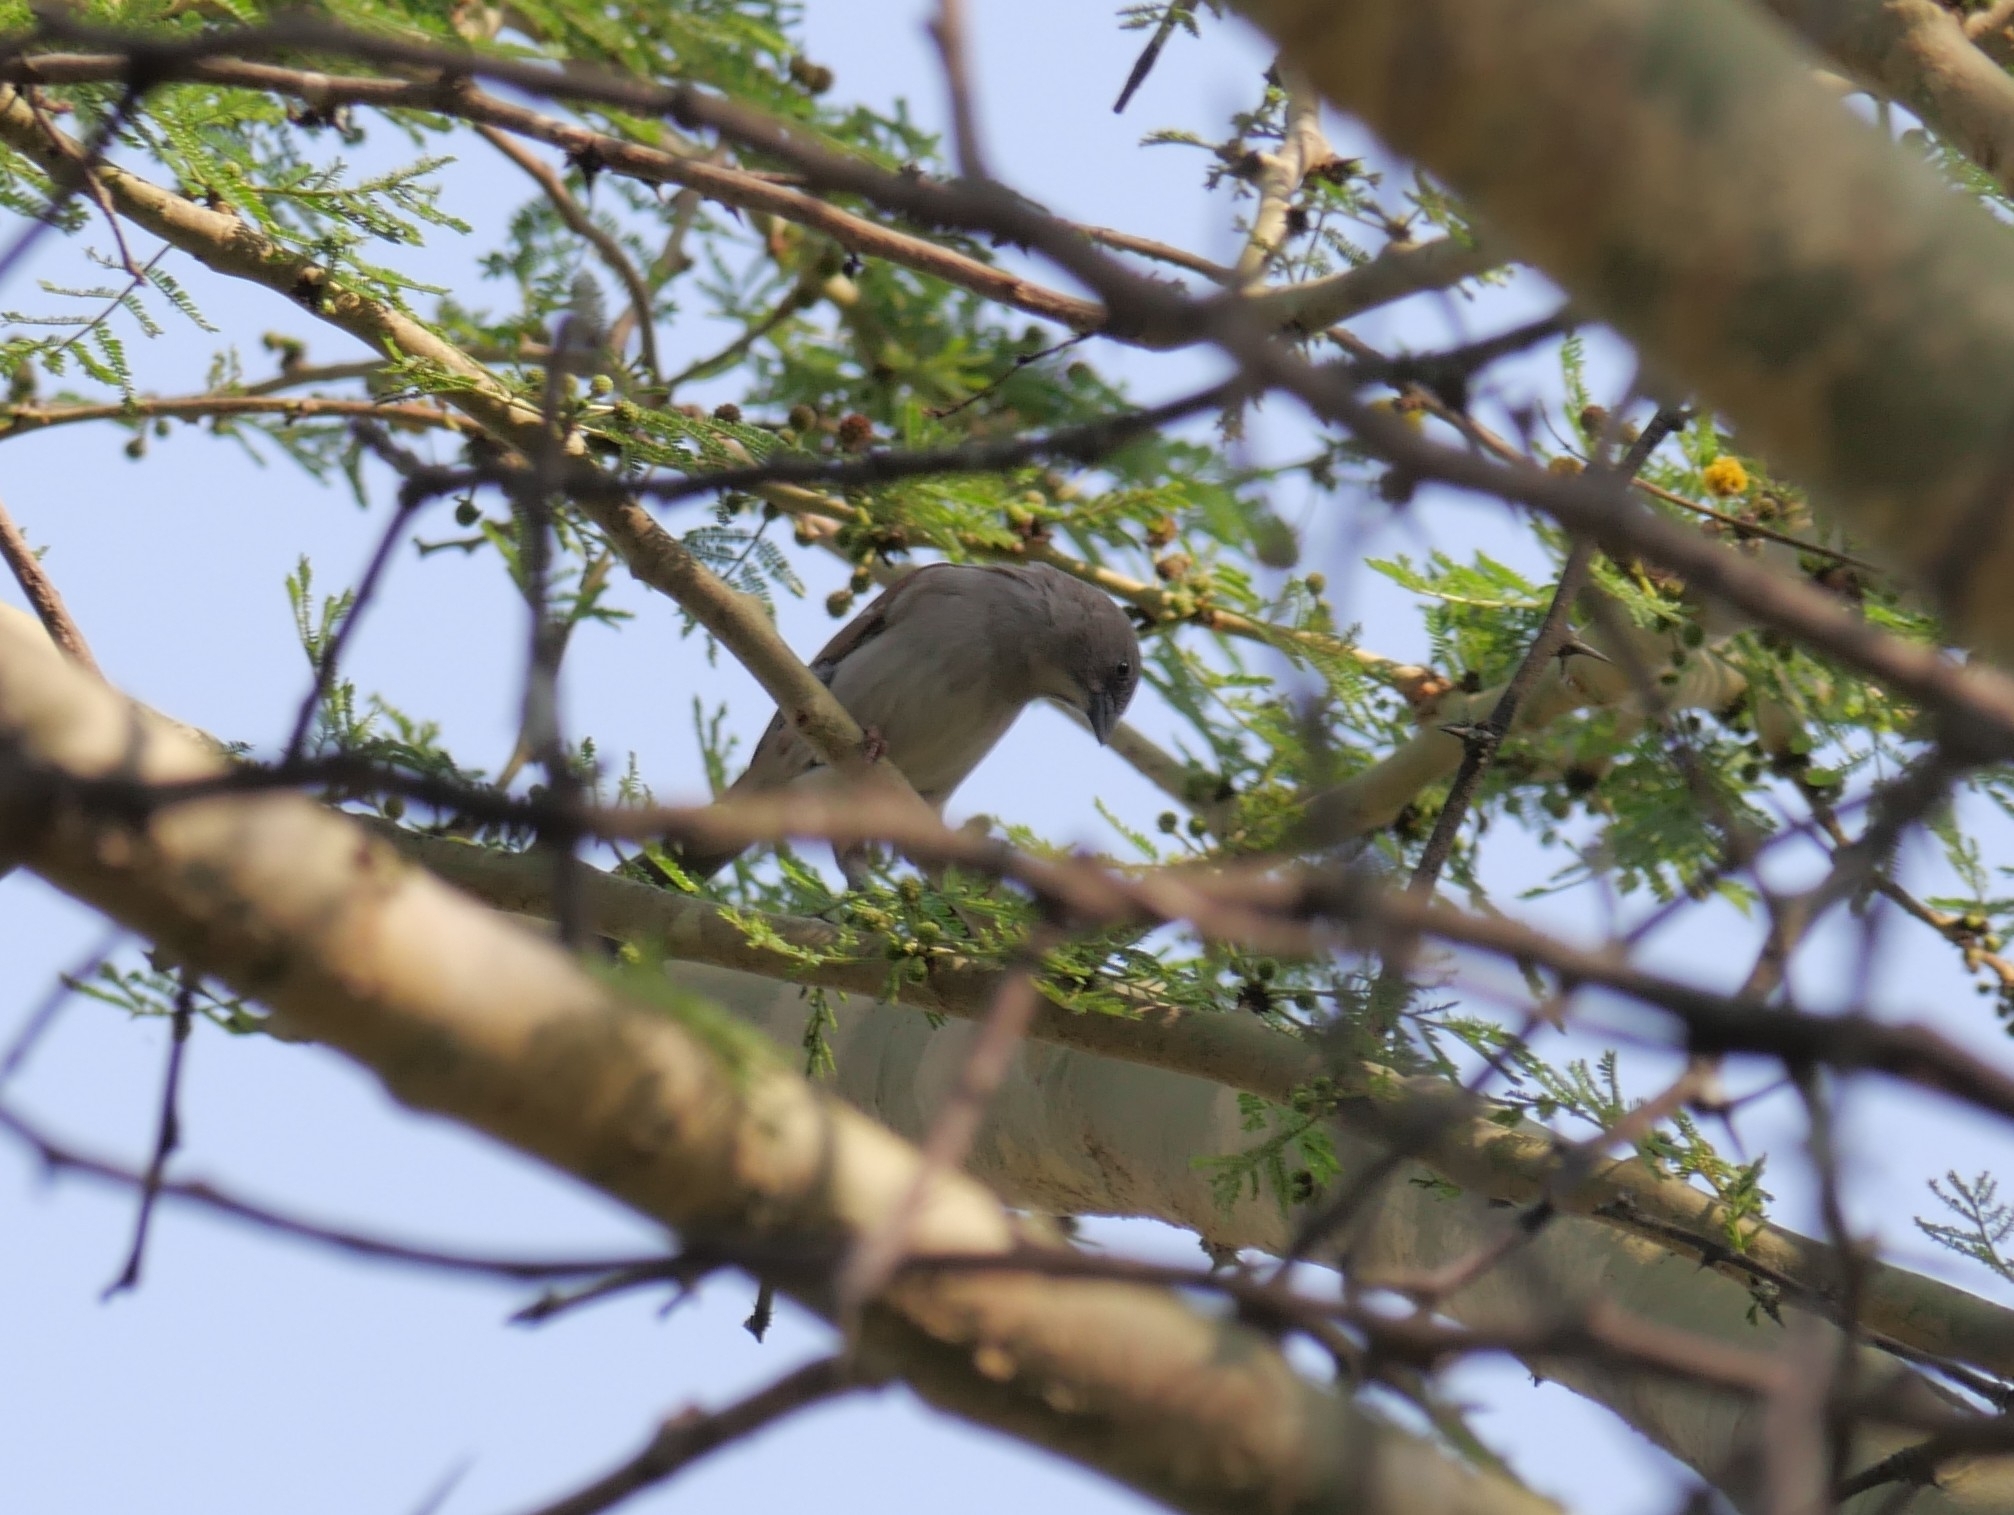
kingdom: Animalia
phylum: Chordata
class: Aves
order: Passeriformes
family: Passeridae
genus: Passer
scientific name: Passer diffusus
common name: Southern grey-headed sparrow
